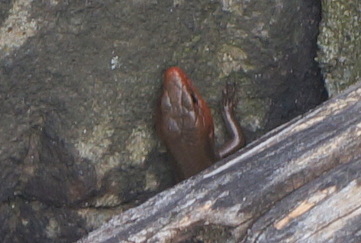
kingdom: Animalia
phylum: Chordata
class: Squamata
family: Scincidae
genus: Plestiodon
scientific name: Plestiodon fasciatus
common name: Five-lined skink
